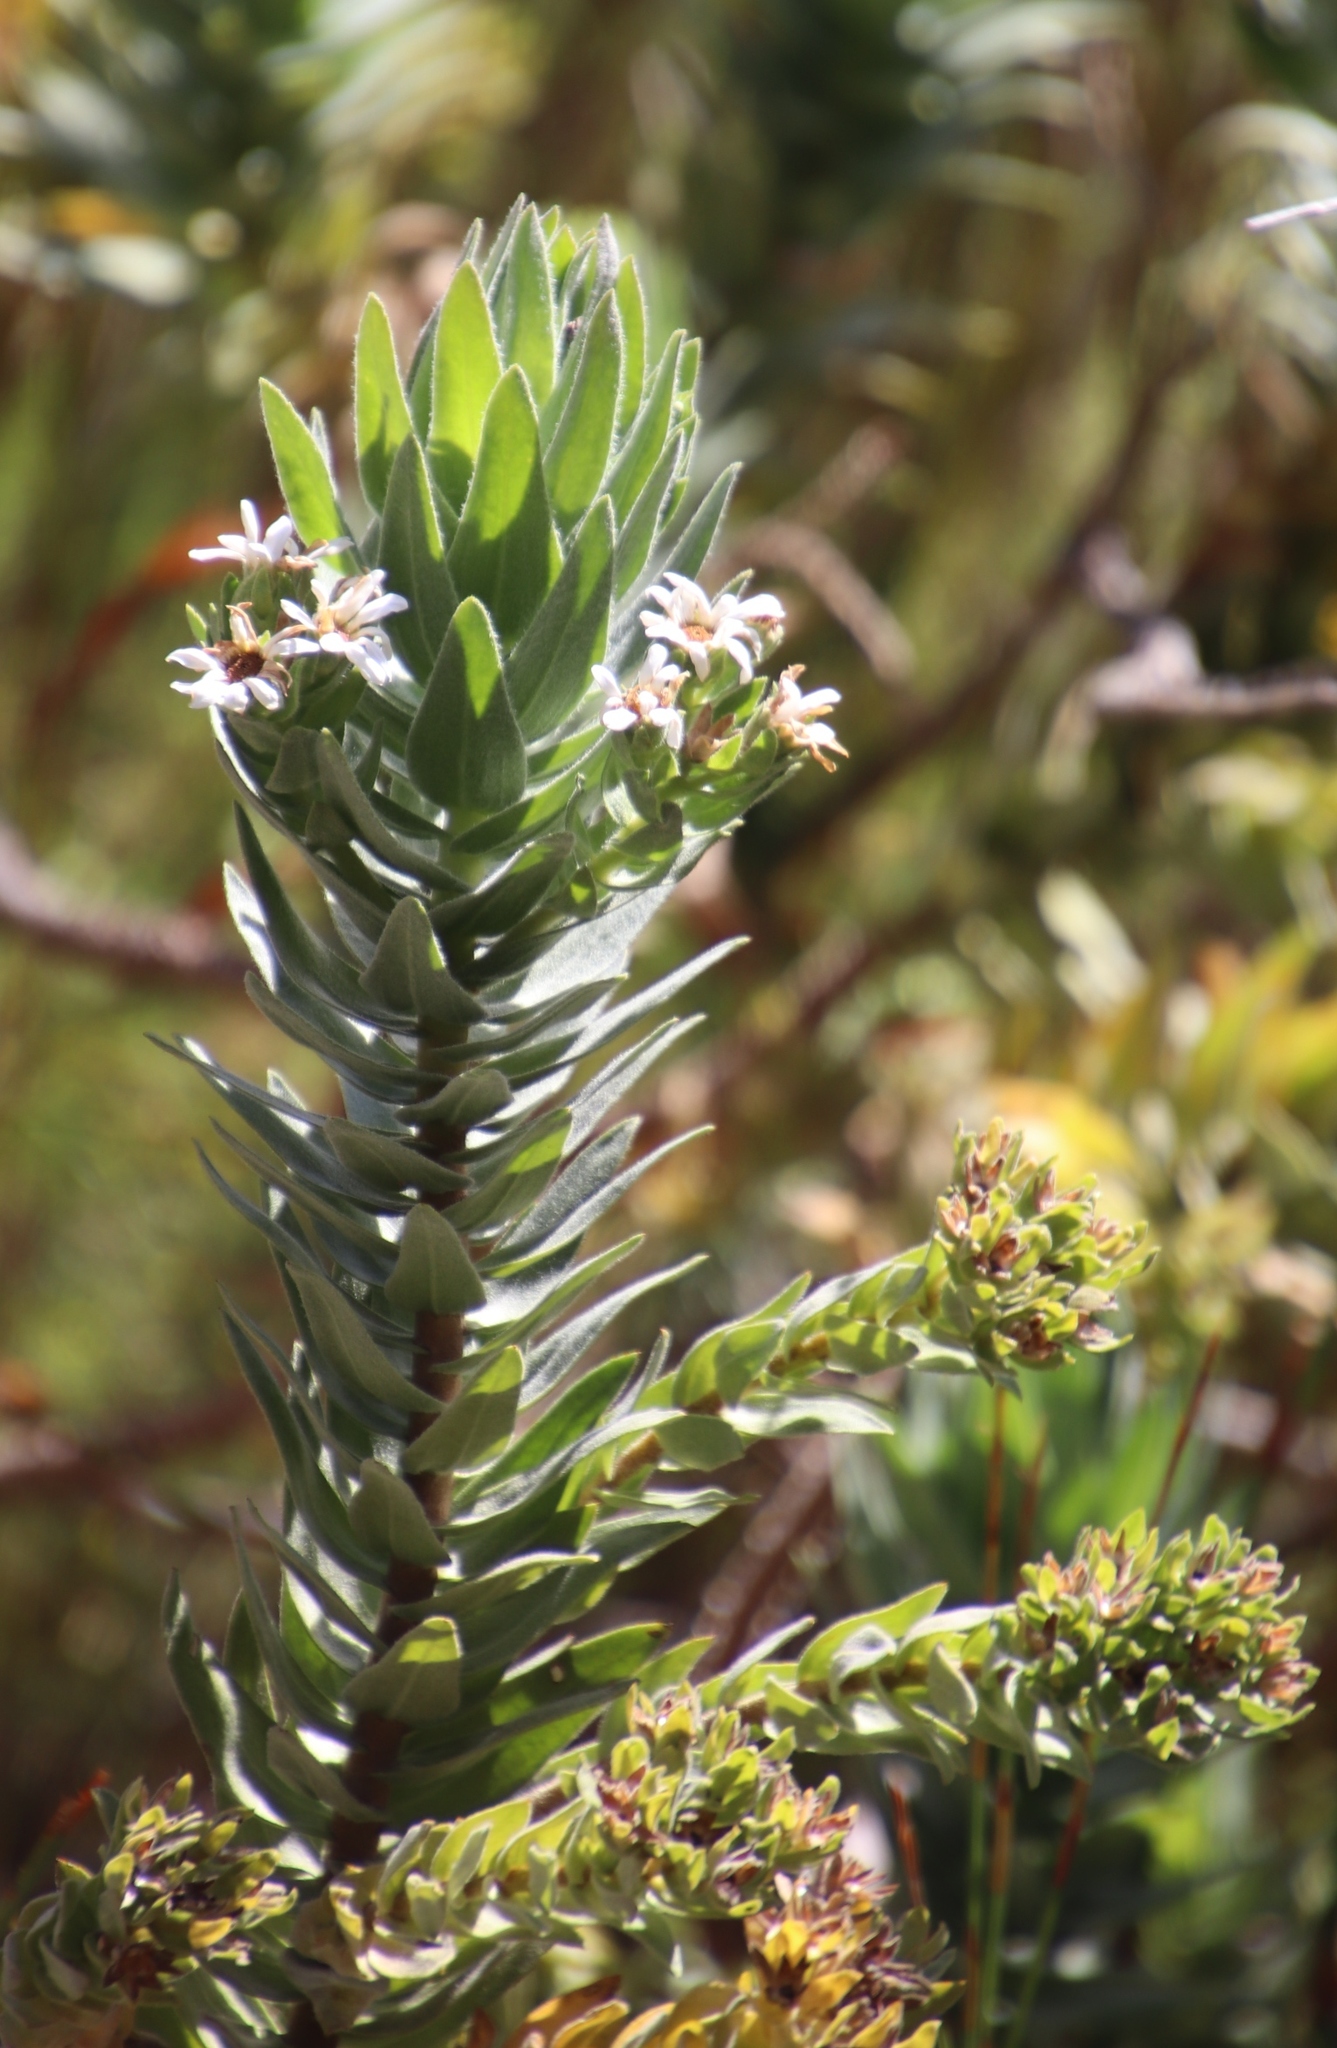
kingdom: Plantae
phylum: Tracheophyta
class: Magnoliopsida
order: Asterales
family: Asteraceae
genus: Osmitopsis
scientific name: Osmitopsis asteriscoides
